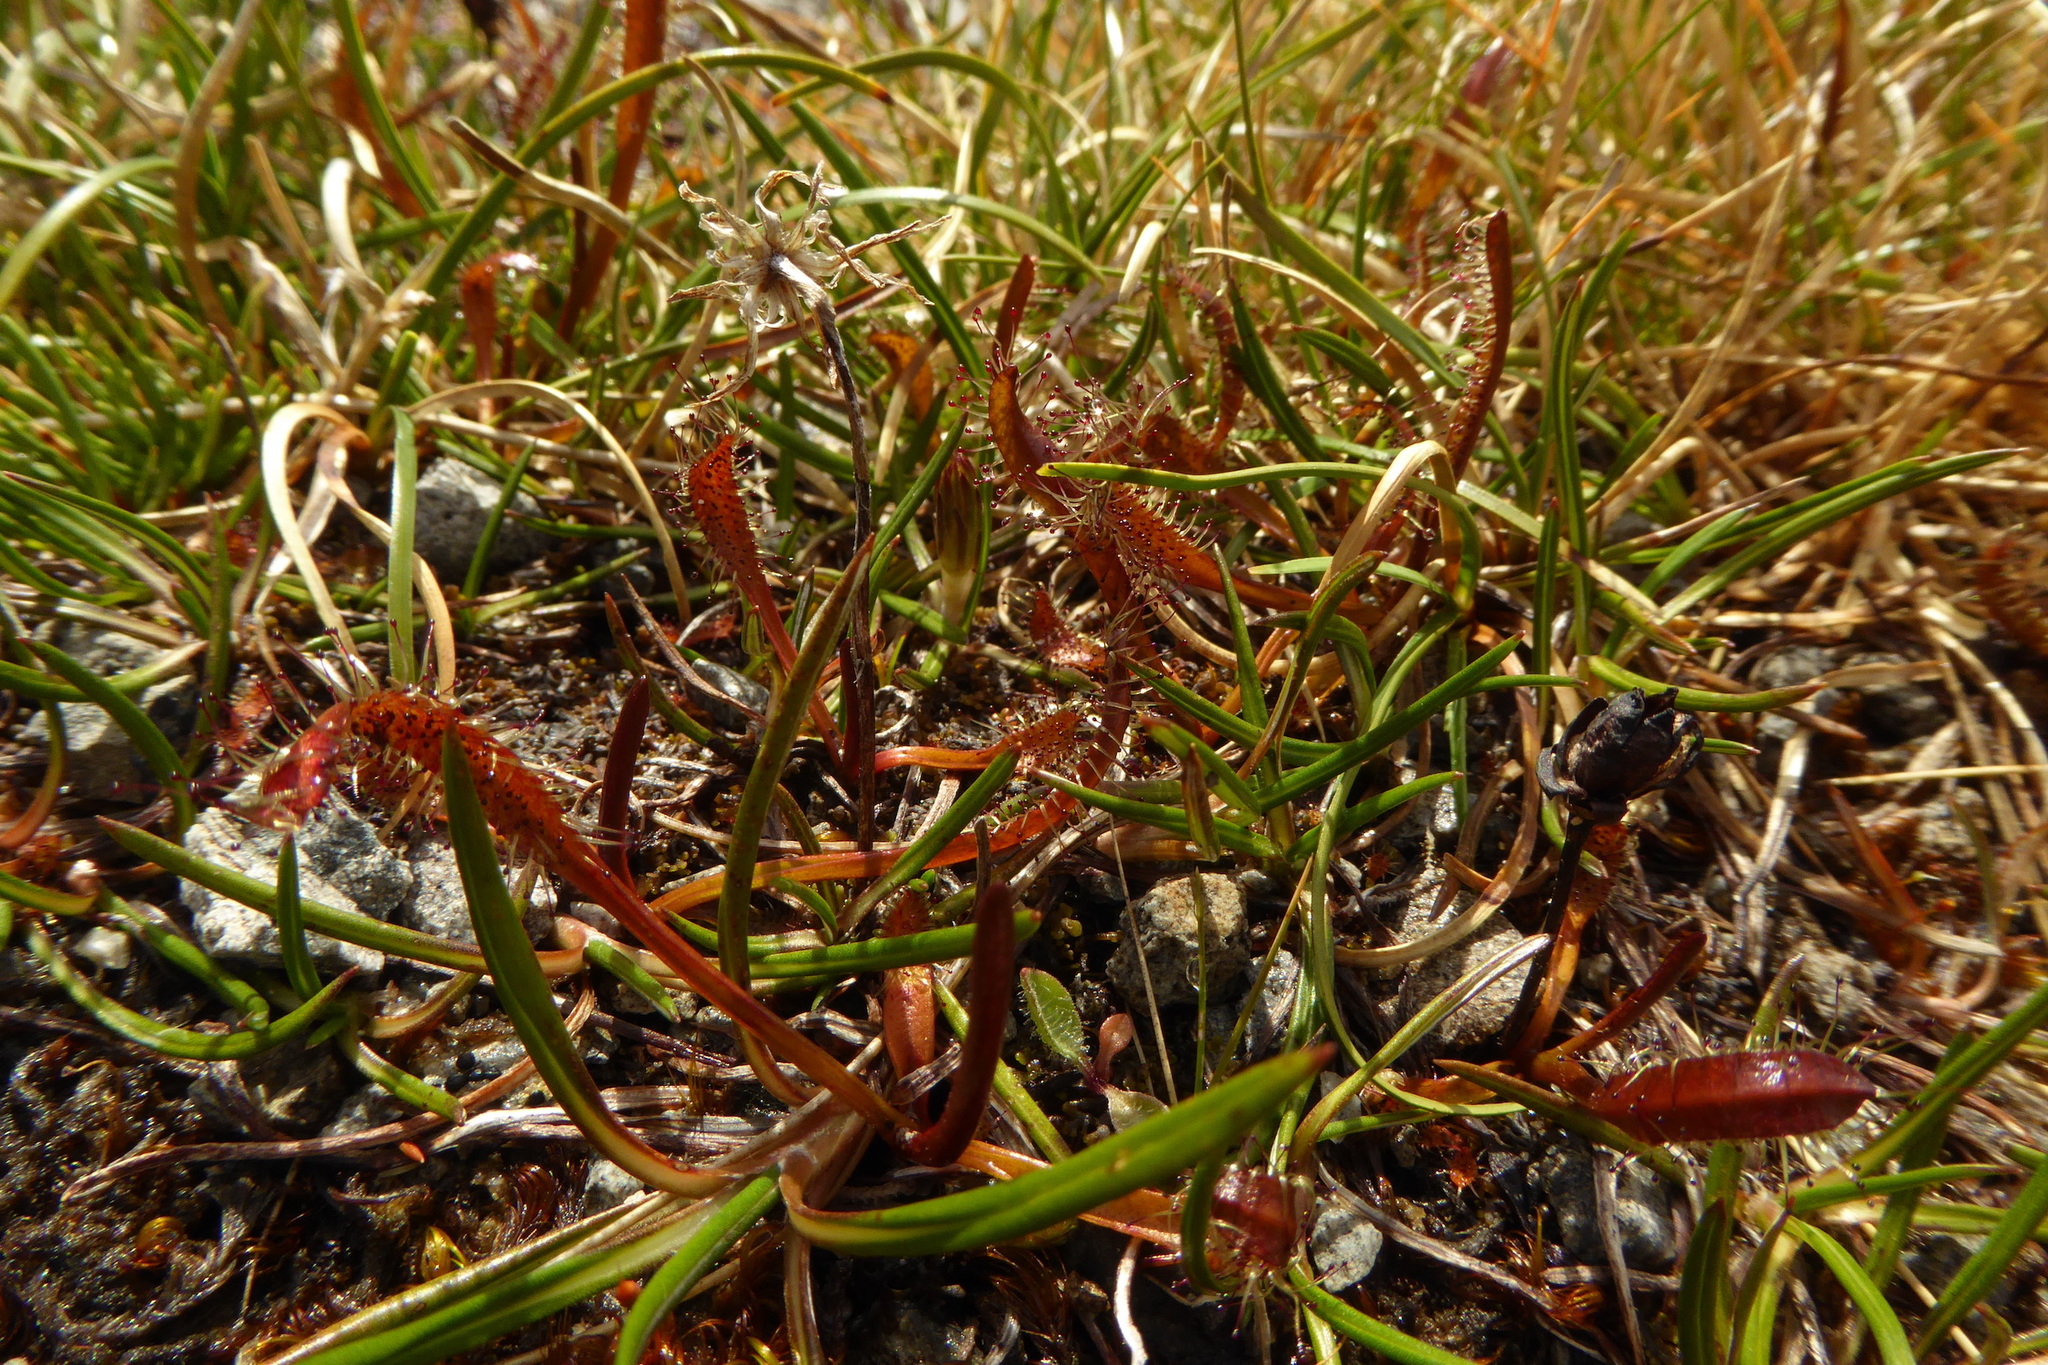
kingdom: Plantae
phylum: Tracheophyta
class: Magnoliopsida
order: Caryophyllales
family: Droseraceae
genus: Drosera
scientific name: Drosera arcturi
